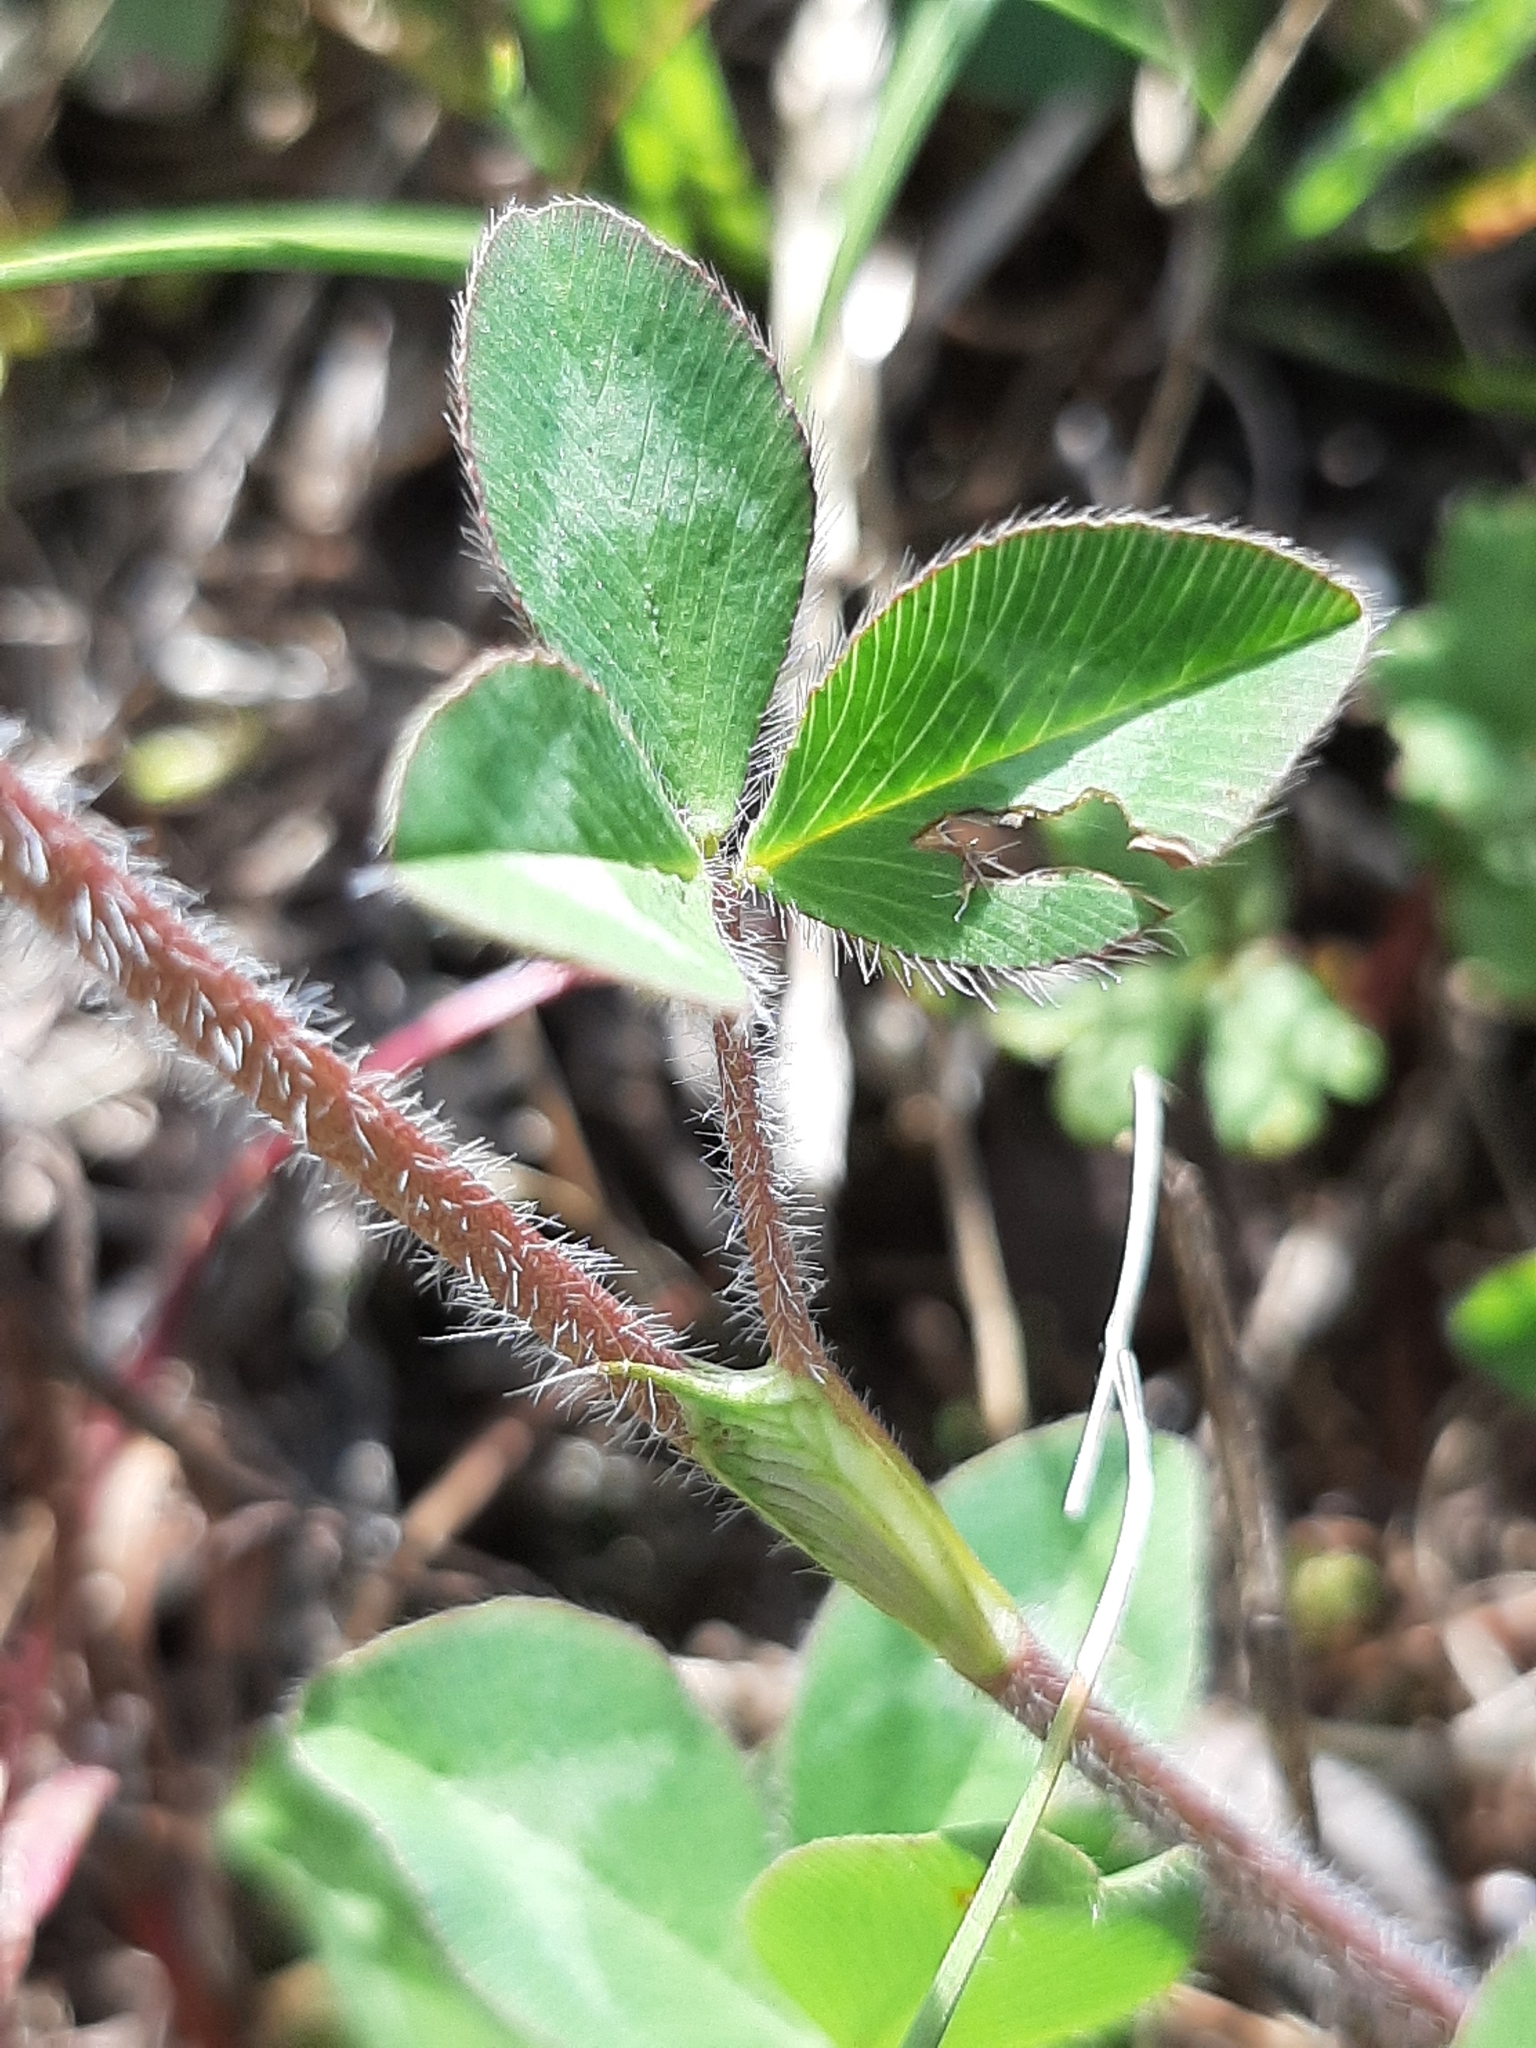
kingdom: Plantae
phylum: Tracheophyta
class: Magnoliopsida
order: Fabales
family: Fabaceae
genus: Trifolium
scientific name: Trifolium pratense
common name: Red clover
